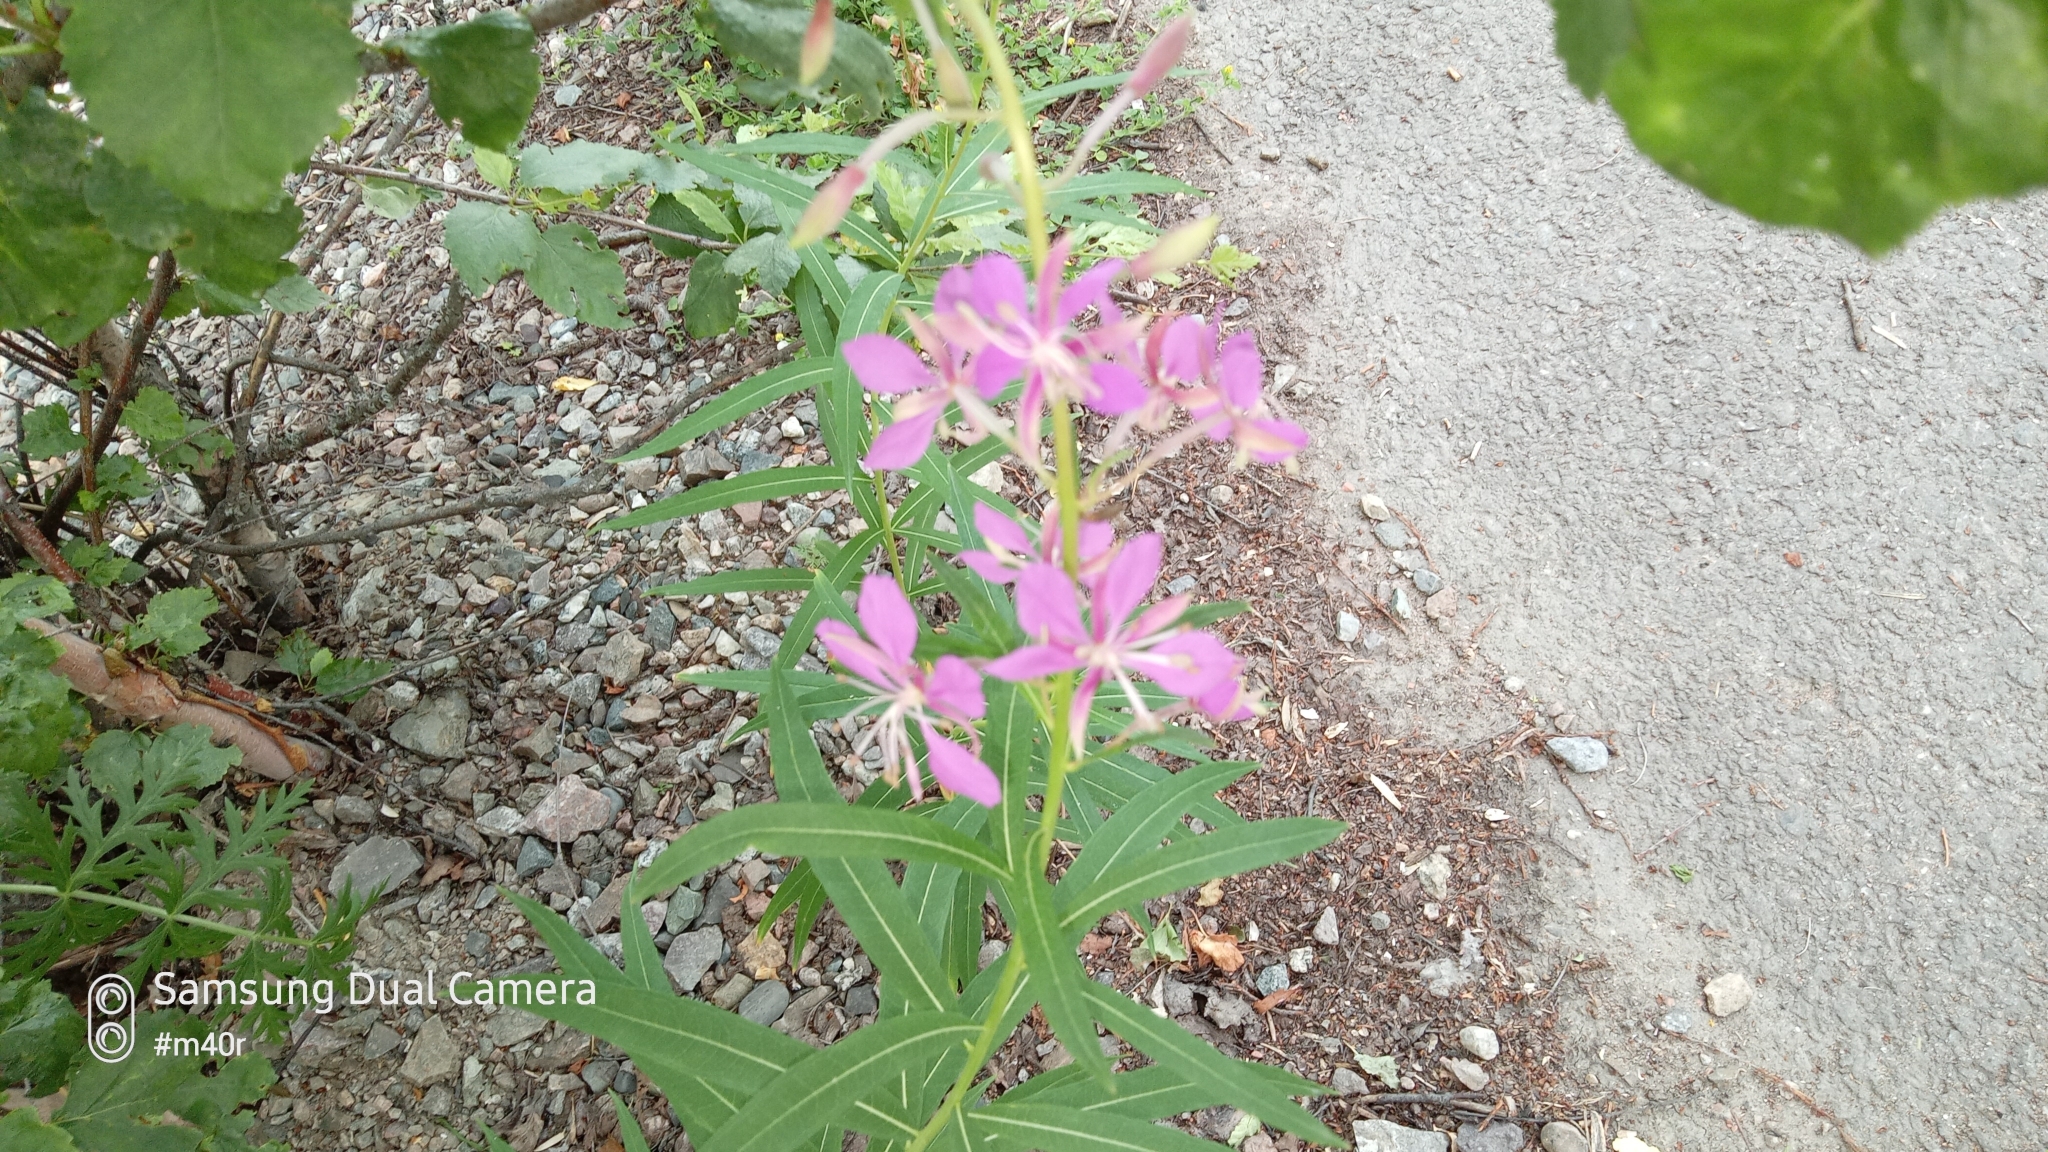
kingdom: Plantae
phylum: Tracheophyta
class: Magnoliopsida
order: Myrtales
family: Onagraceae
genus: Chamaenerion
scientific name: Chamaenerion angustifolium
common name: Fireweed
